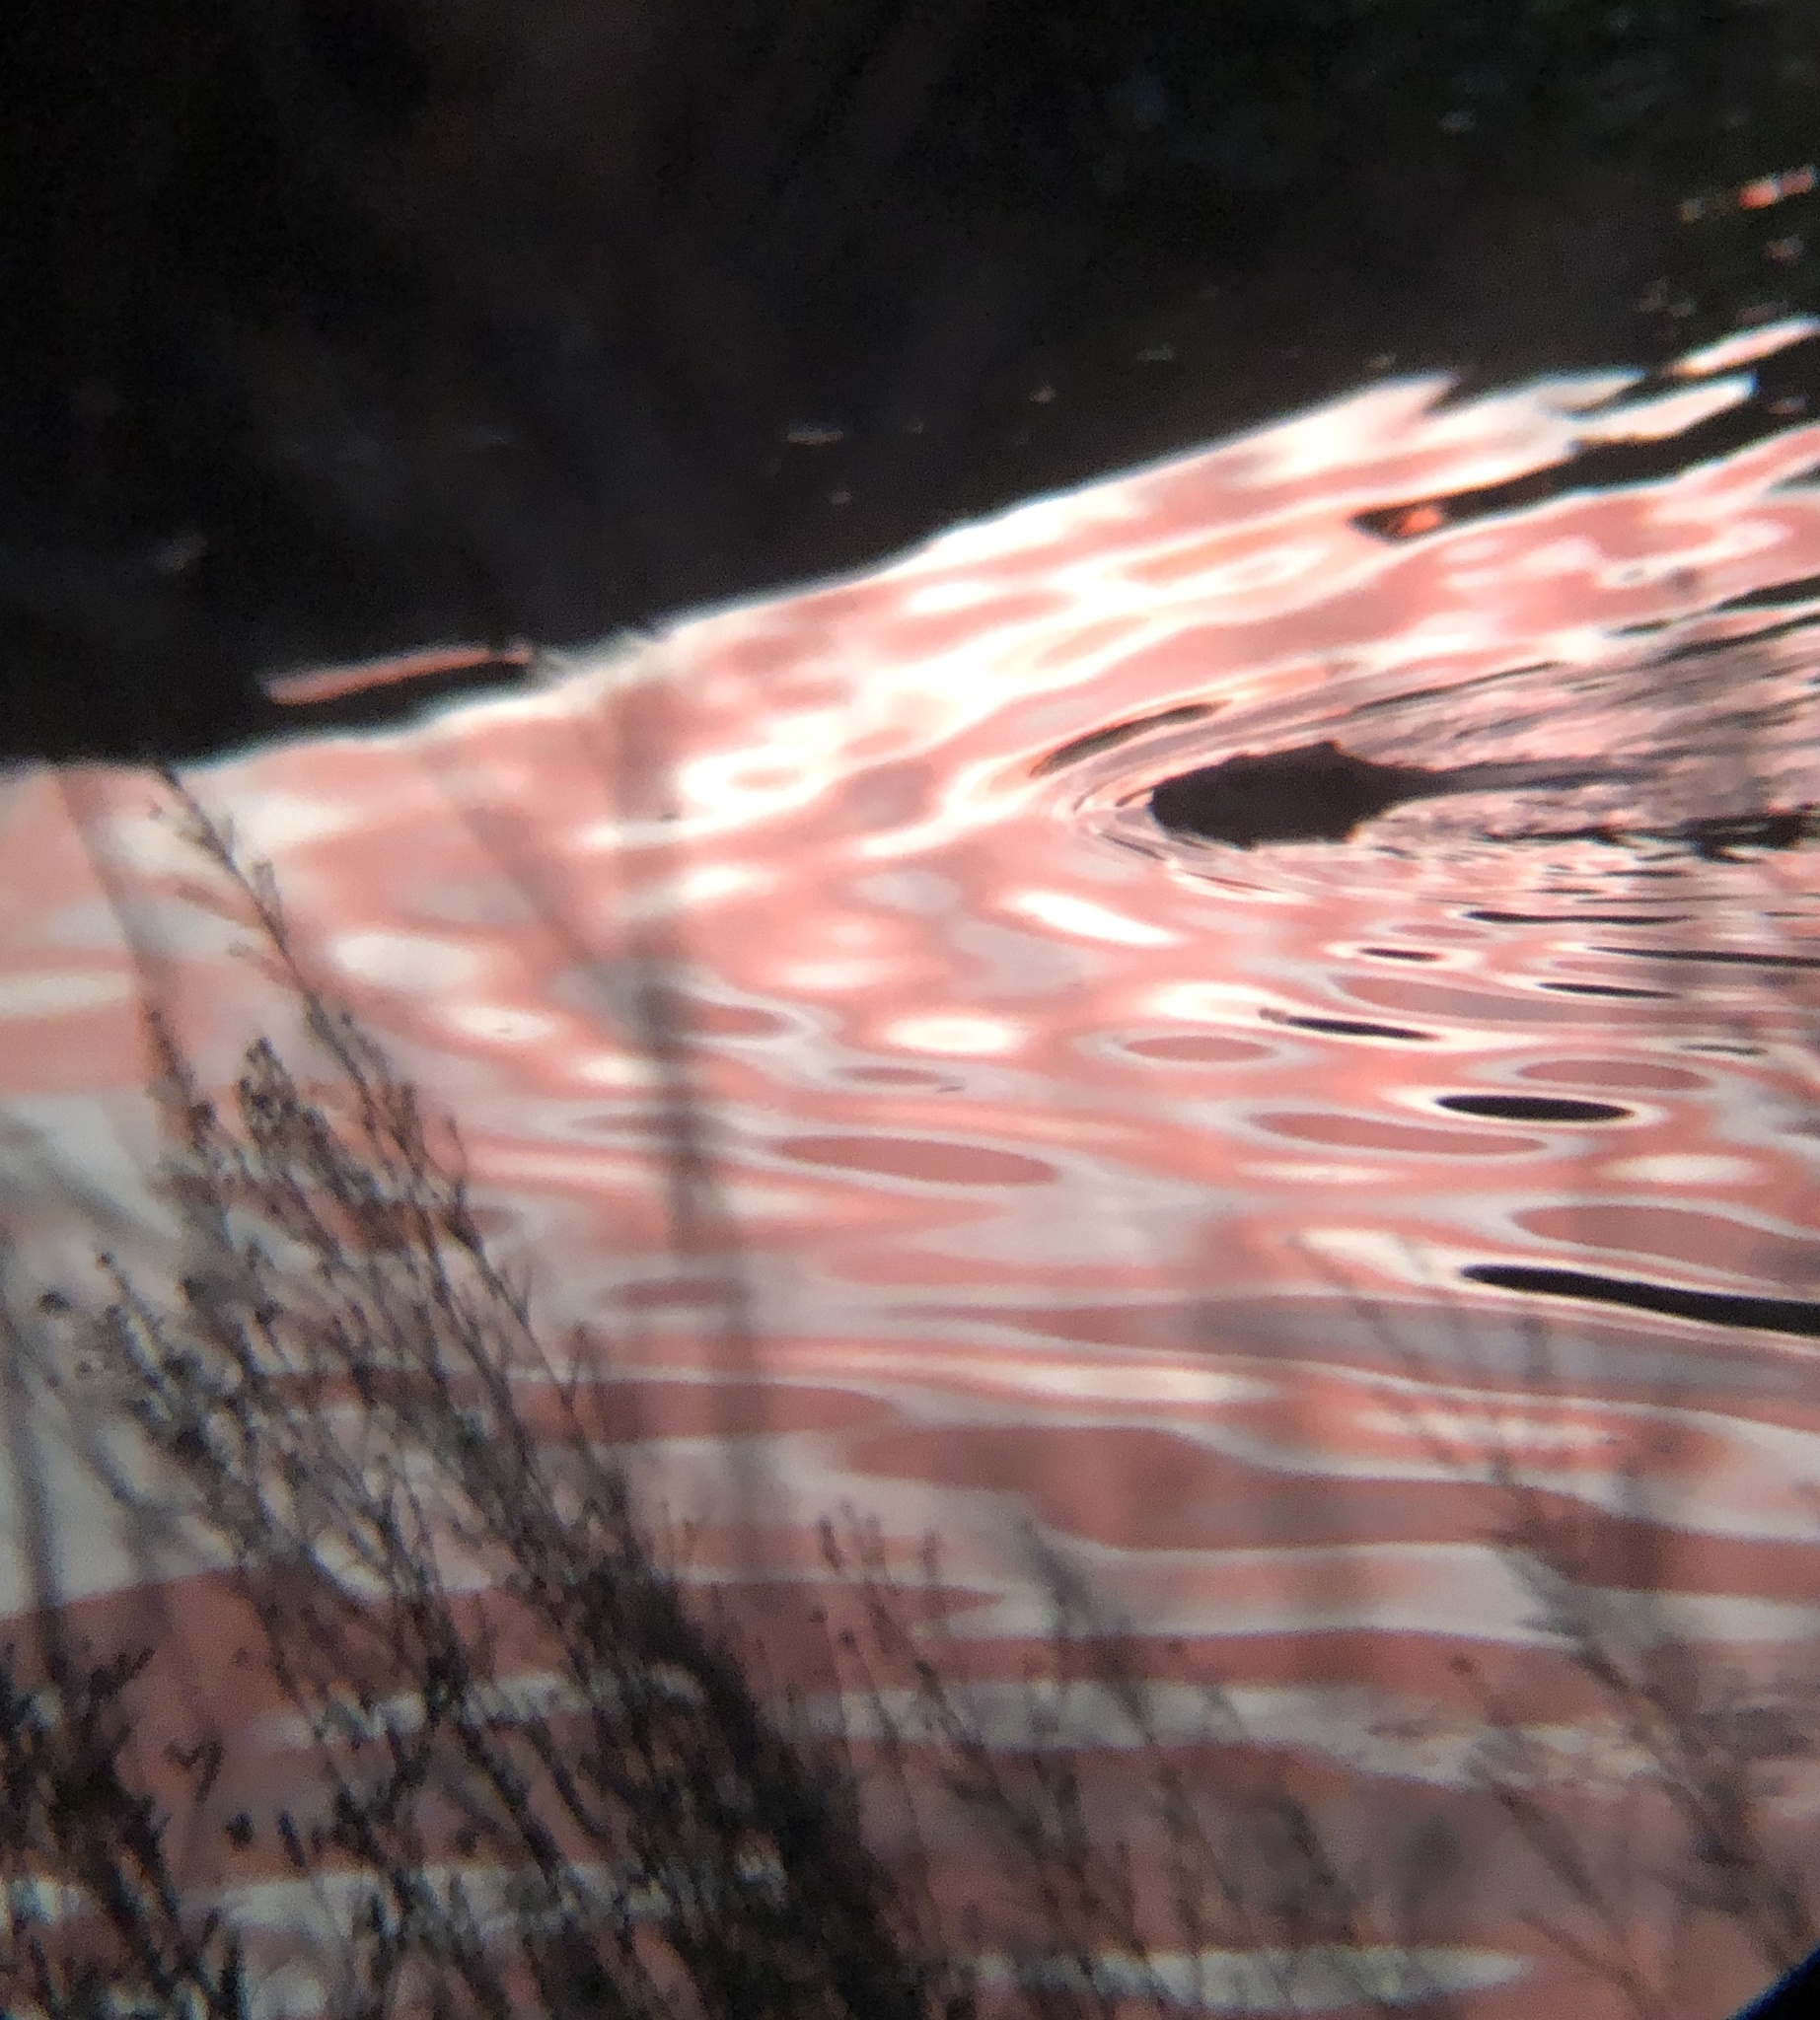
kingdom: Animalia
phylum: Chordata
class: Mammalia
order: Rodentia
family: Castoridae
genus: Castor
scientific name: Castor canadensis
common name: American beaver
